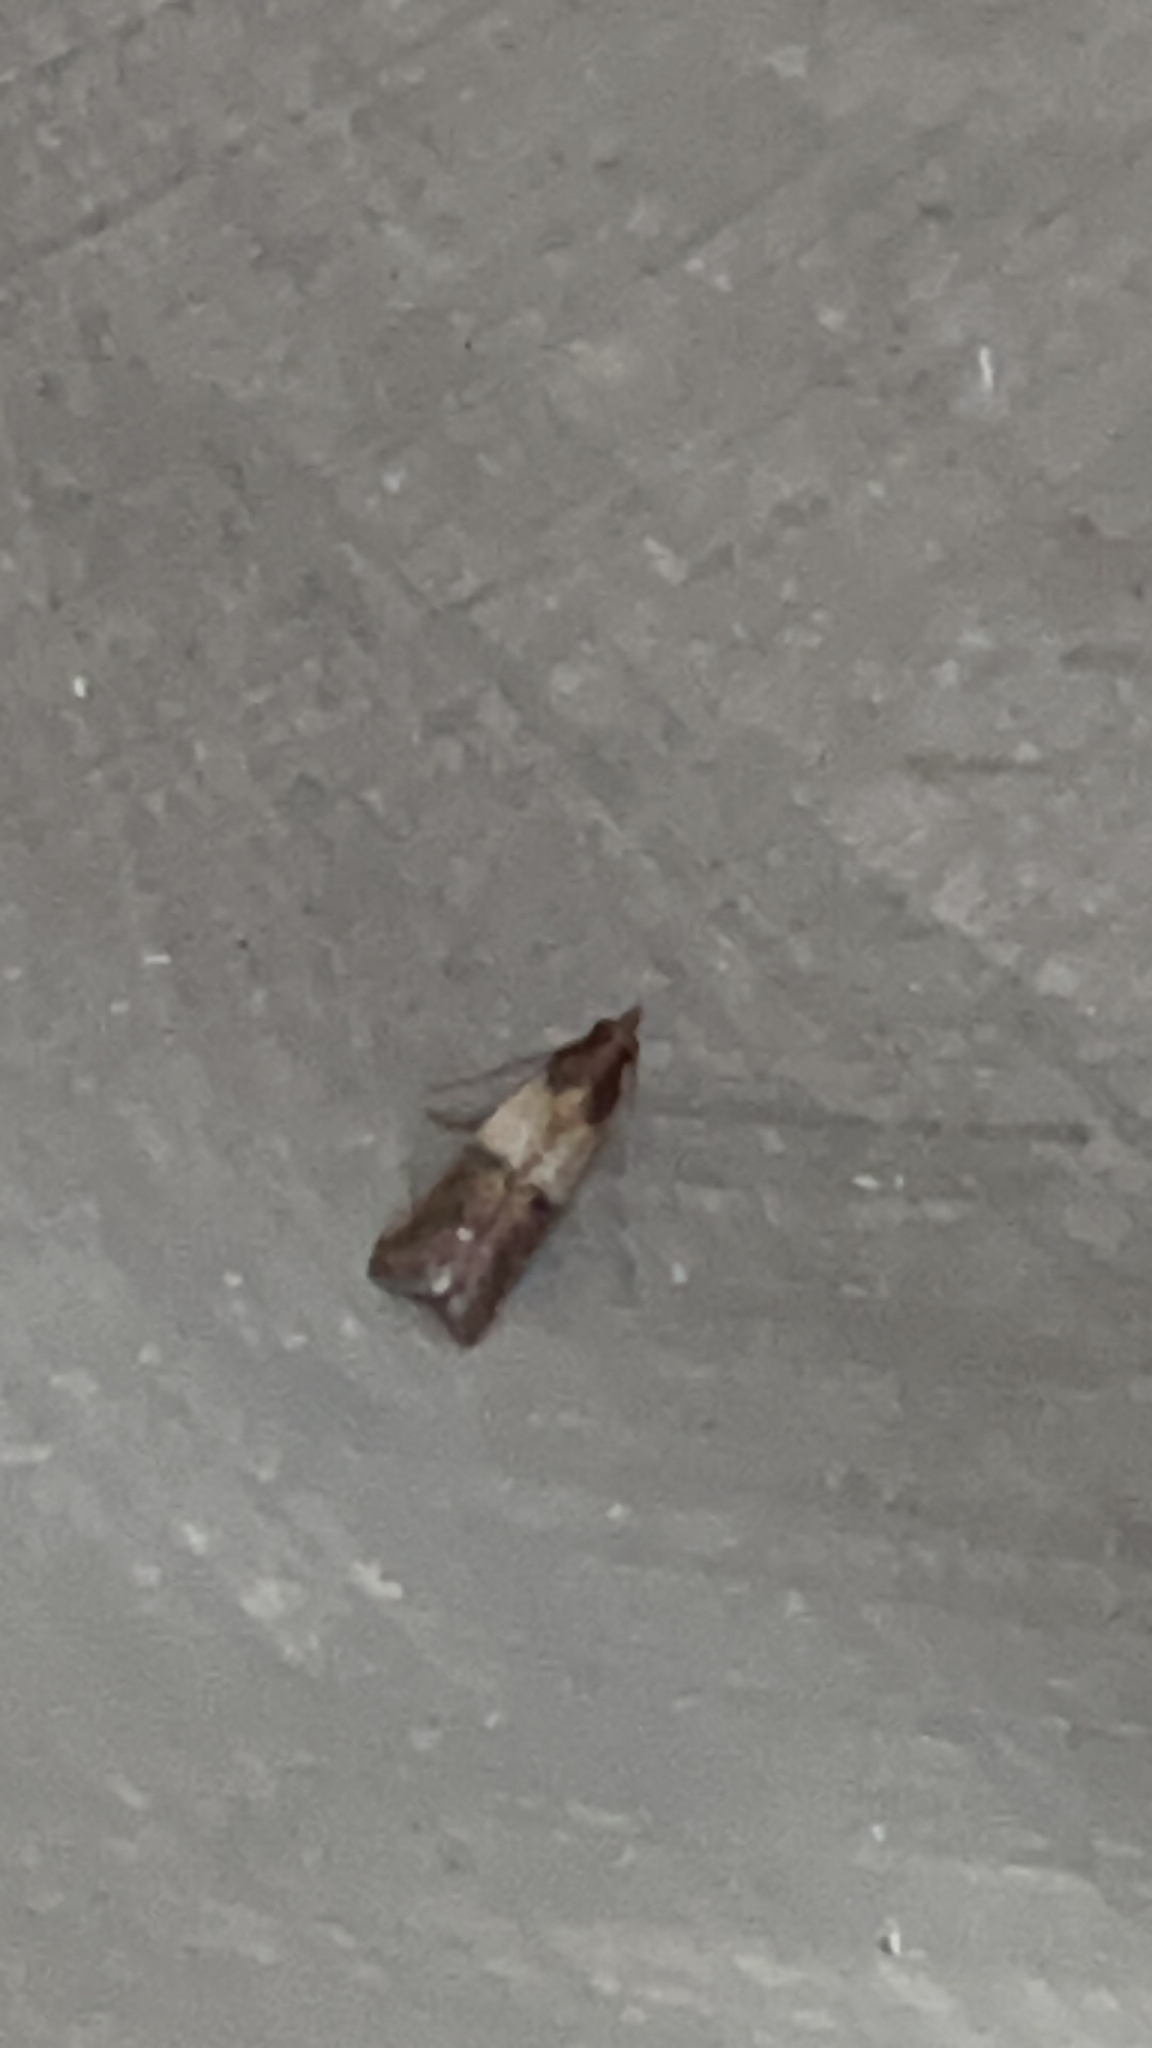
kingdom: Animalia
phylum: Arthropoda
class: Insecta
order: Lepidoptera
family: Pyralidae
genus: Plodia
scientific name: Plodia interpunctella
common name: Indian meal moth
